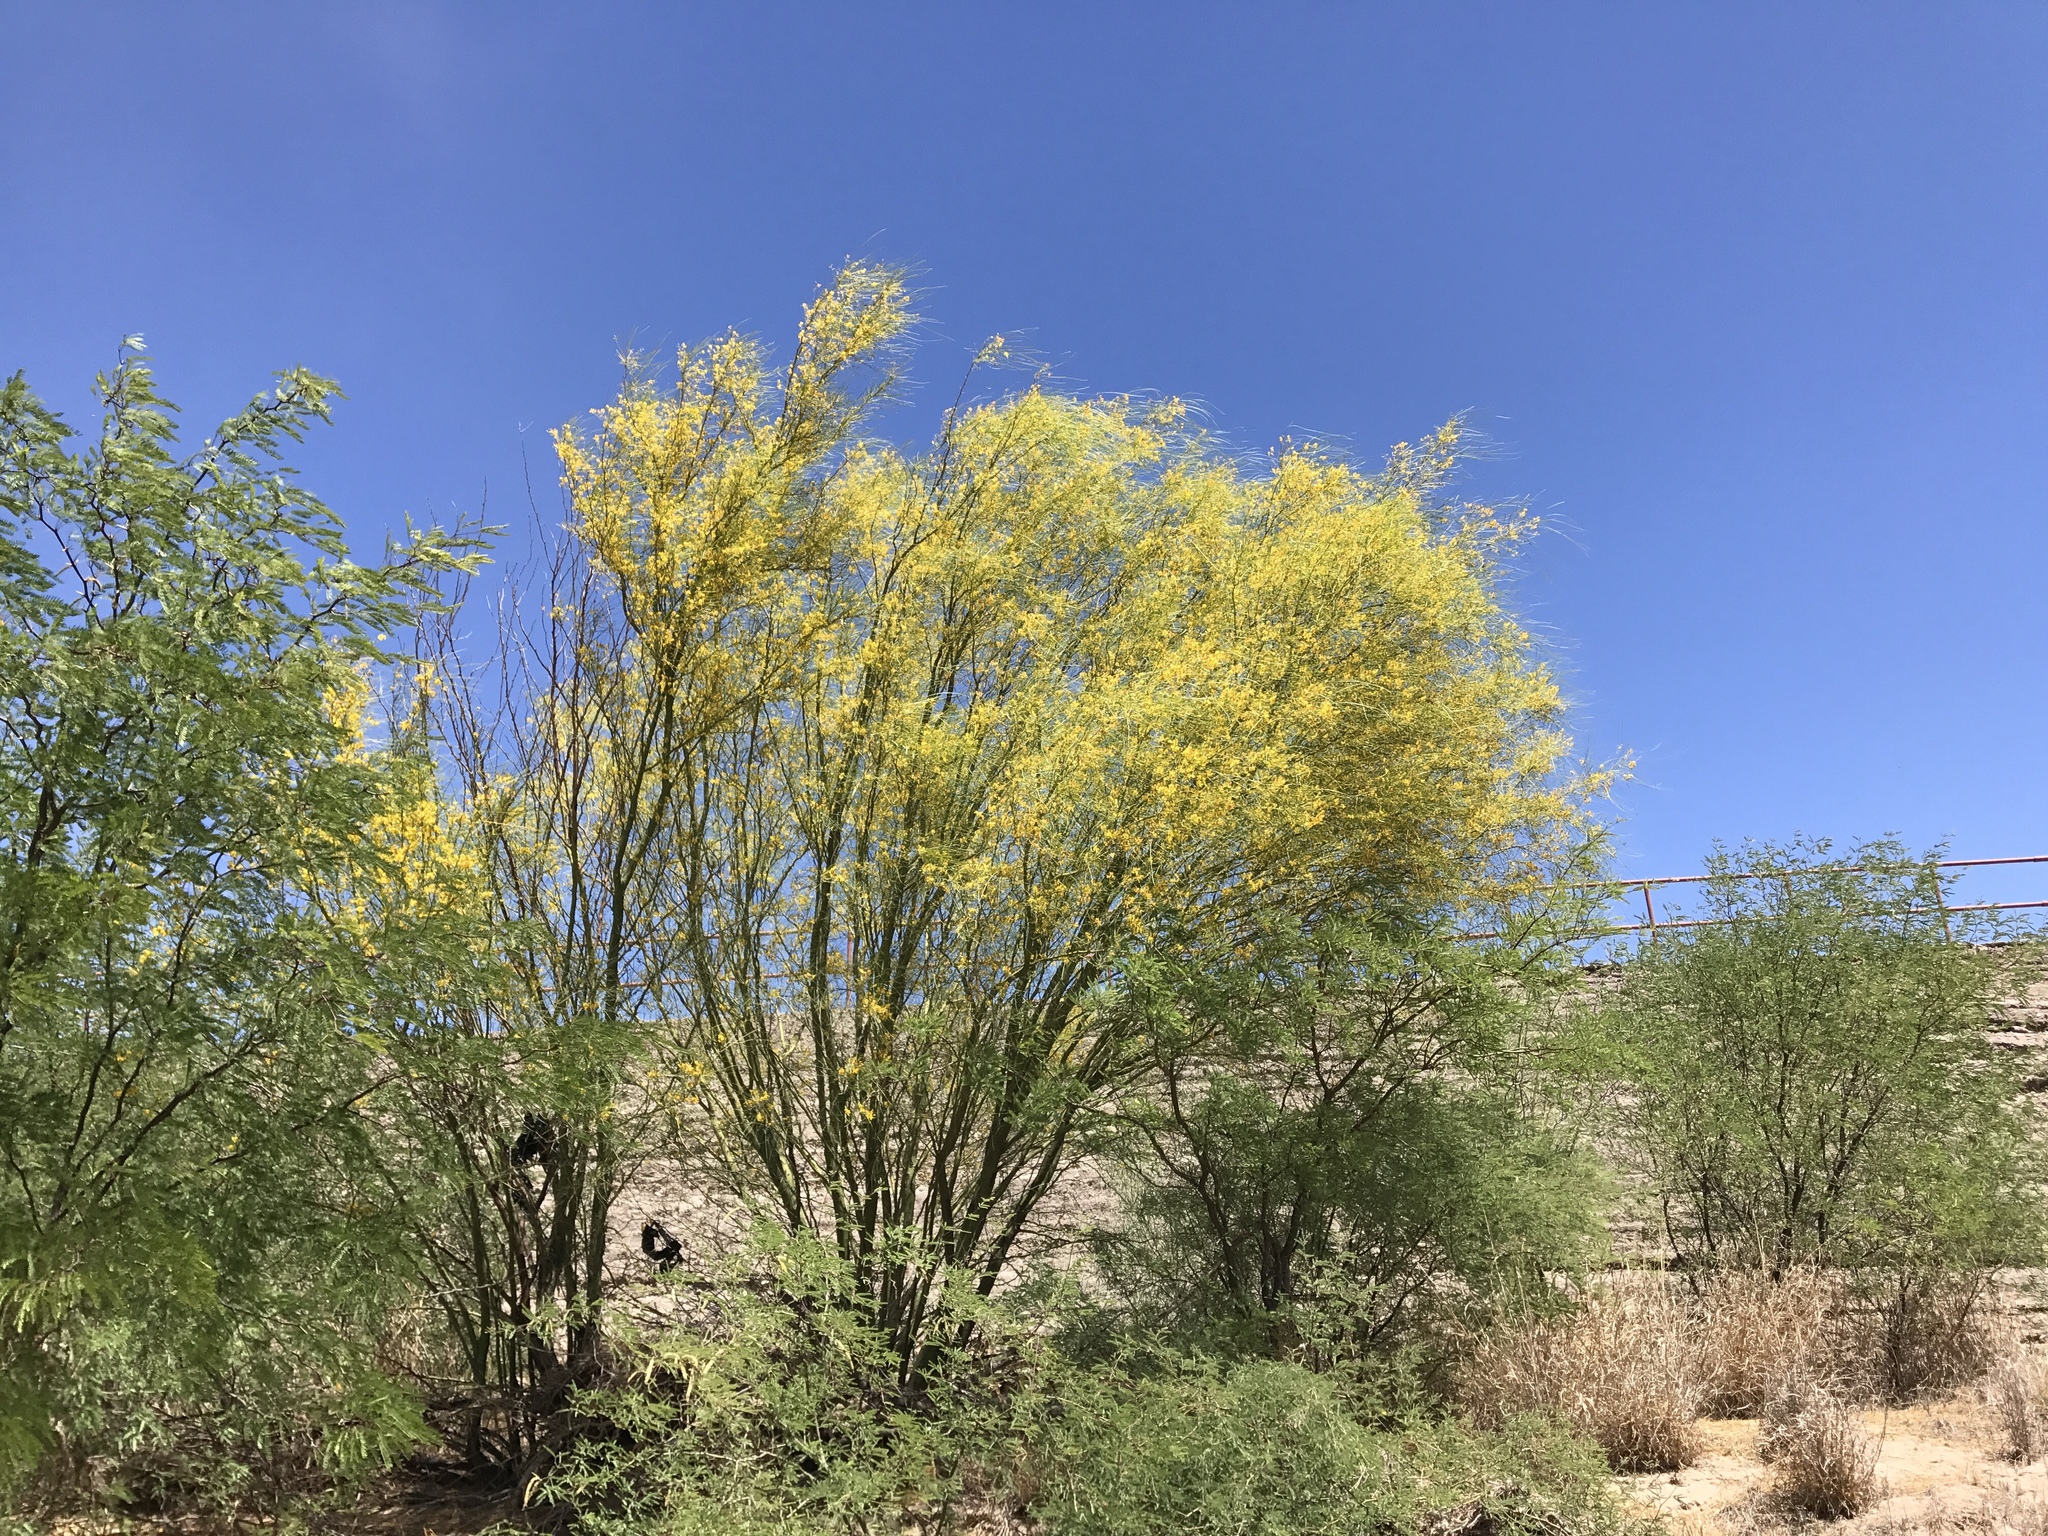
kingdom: Plantae
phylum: Tracheophyta
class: Magnoliopsida
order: Fabales
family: Fabaceae
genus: Parkinsonia
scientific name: Parkinsonia aculeata
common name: Jerusalem thorn
